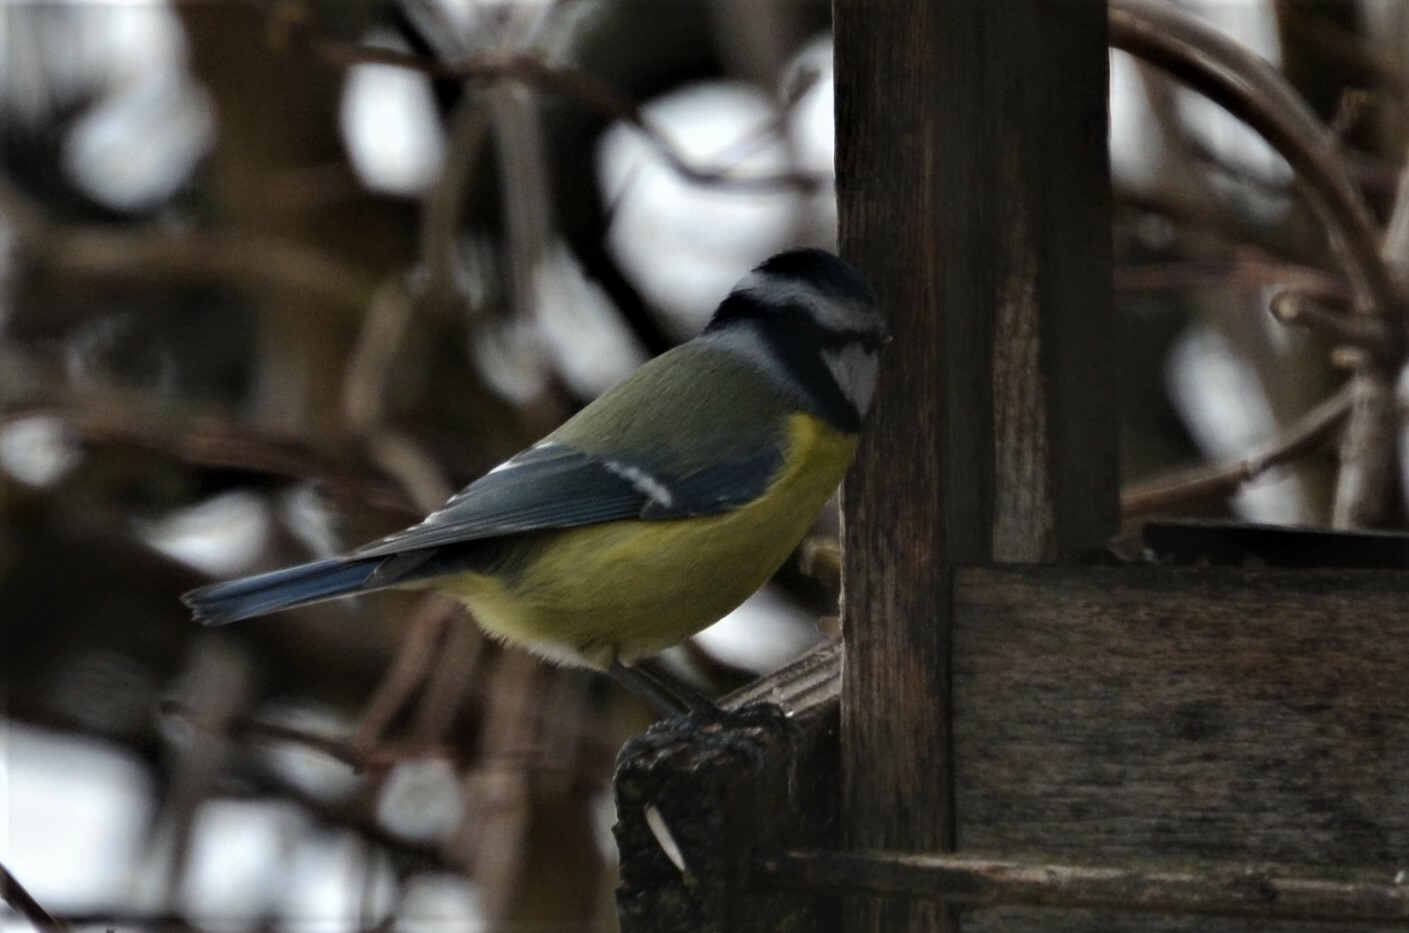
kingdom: Animalia
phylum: Chordata
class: Aves
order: Passeriformes
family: Paridae
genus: Cyanistes
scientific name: Cyanistes caeruleus
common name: Eurasian blue tit
